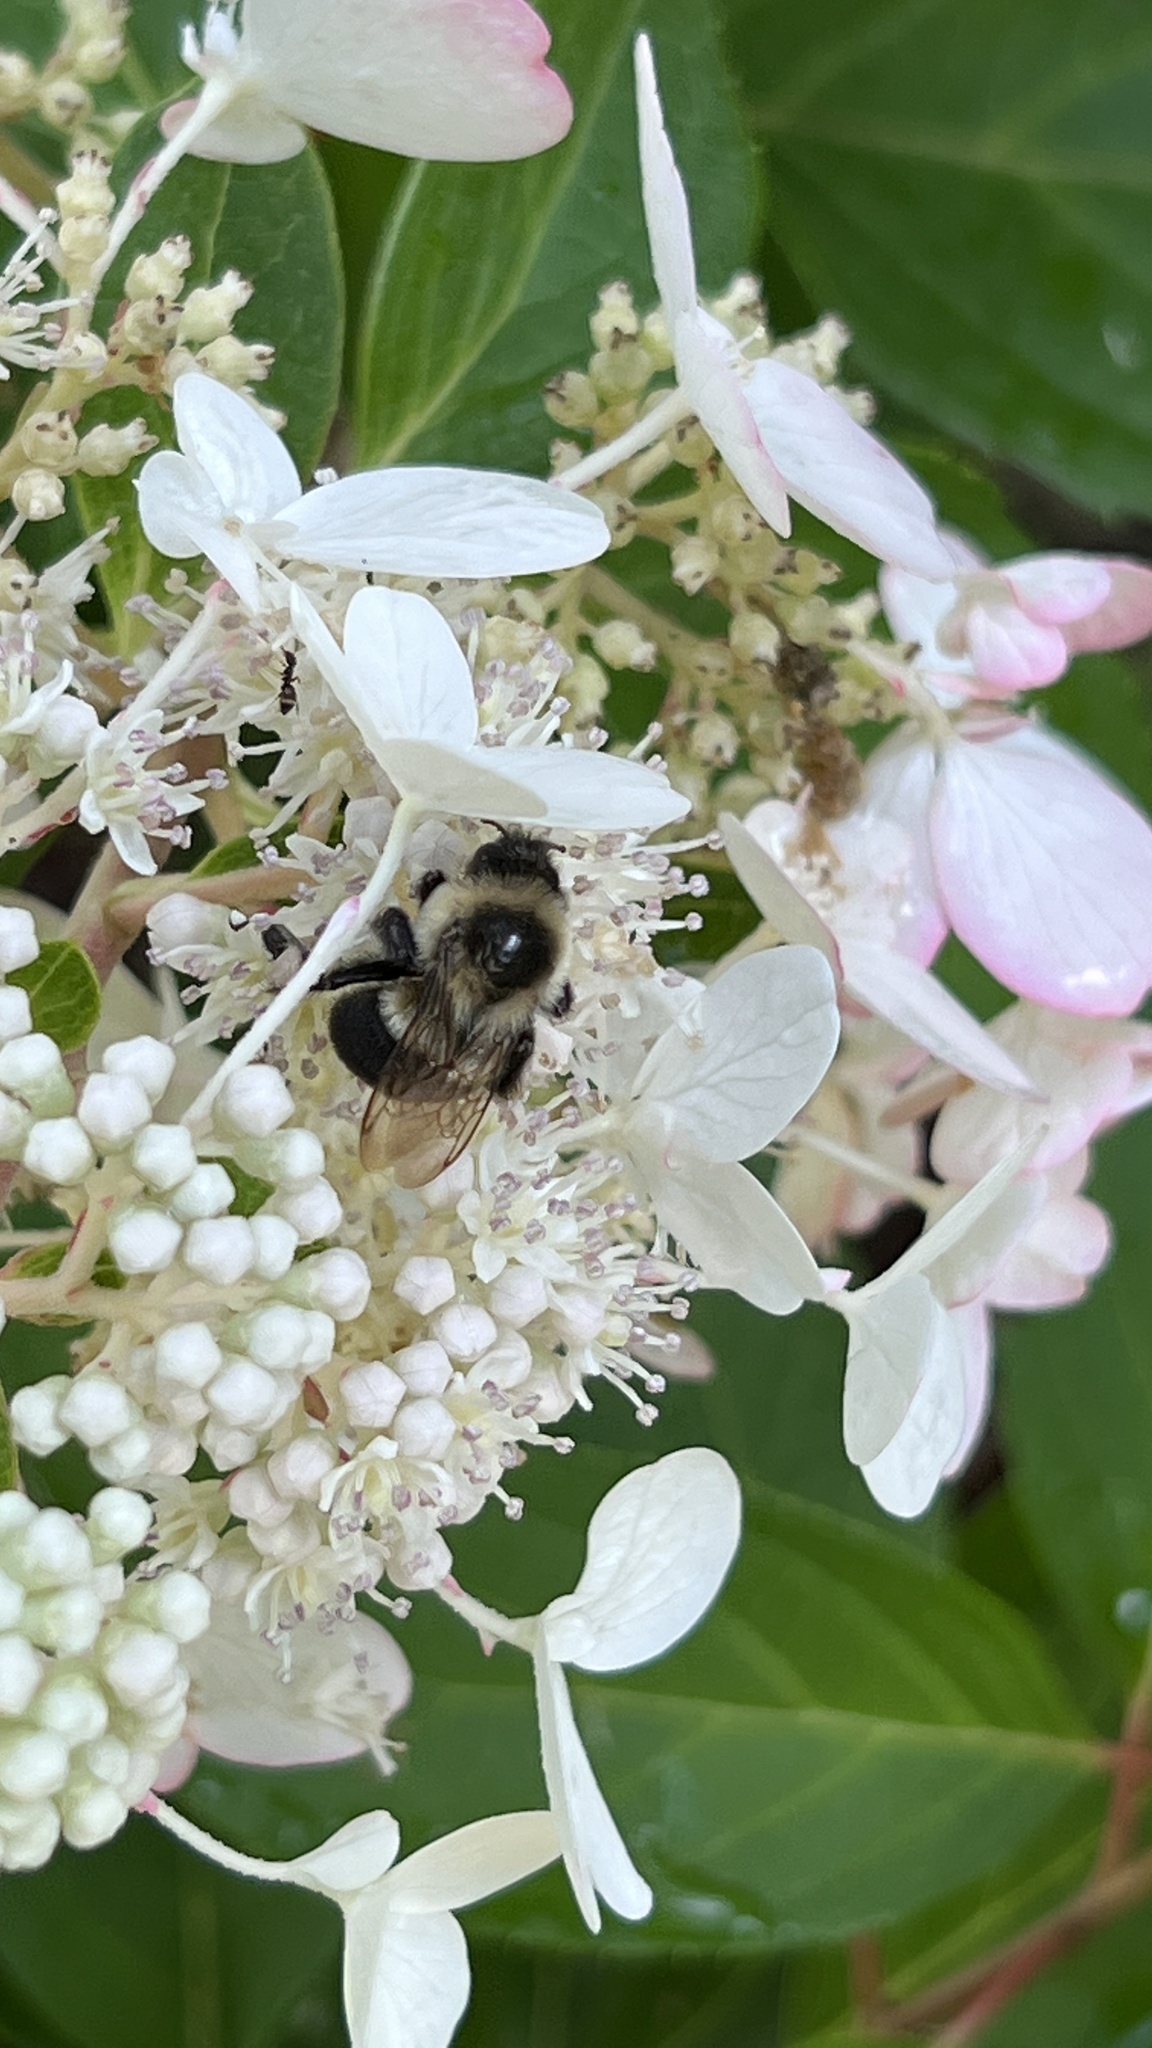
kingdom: Animalia
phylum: Arthropoda
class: Insecta
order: Hymenoptera
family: Apidae
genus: Bombus
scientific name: Bombus impatiens
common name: Common eastern bumble bee
